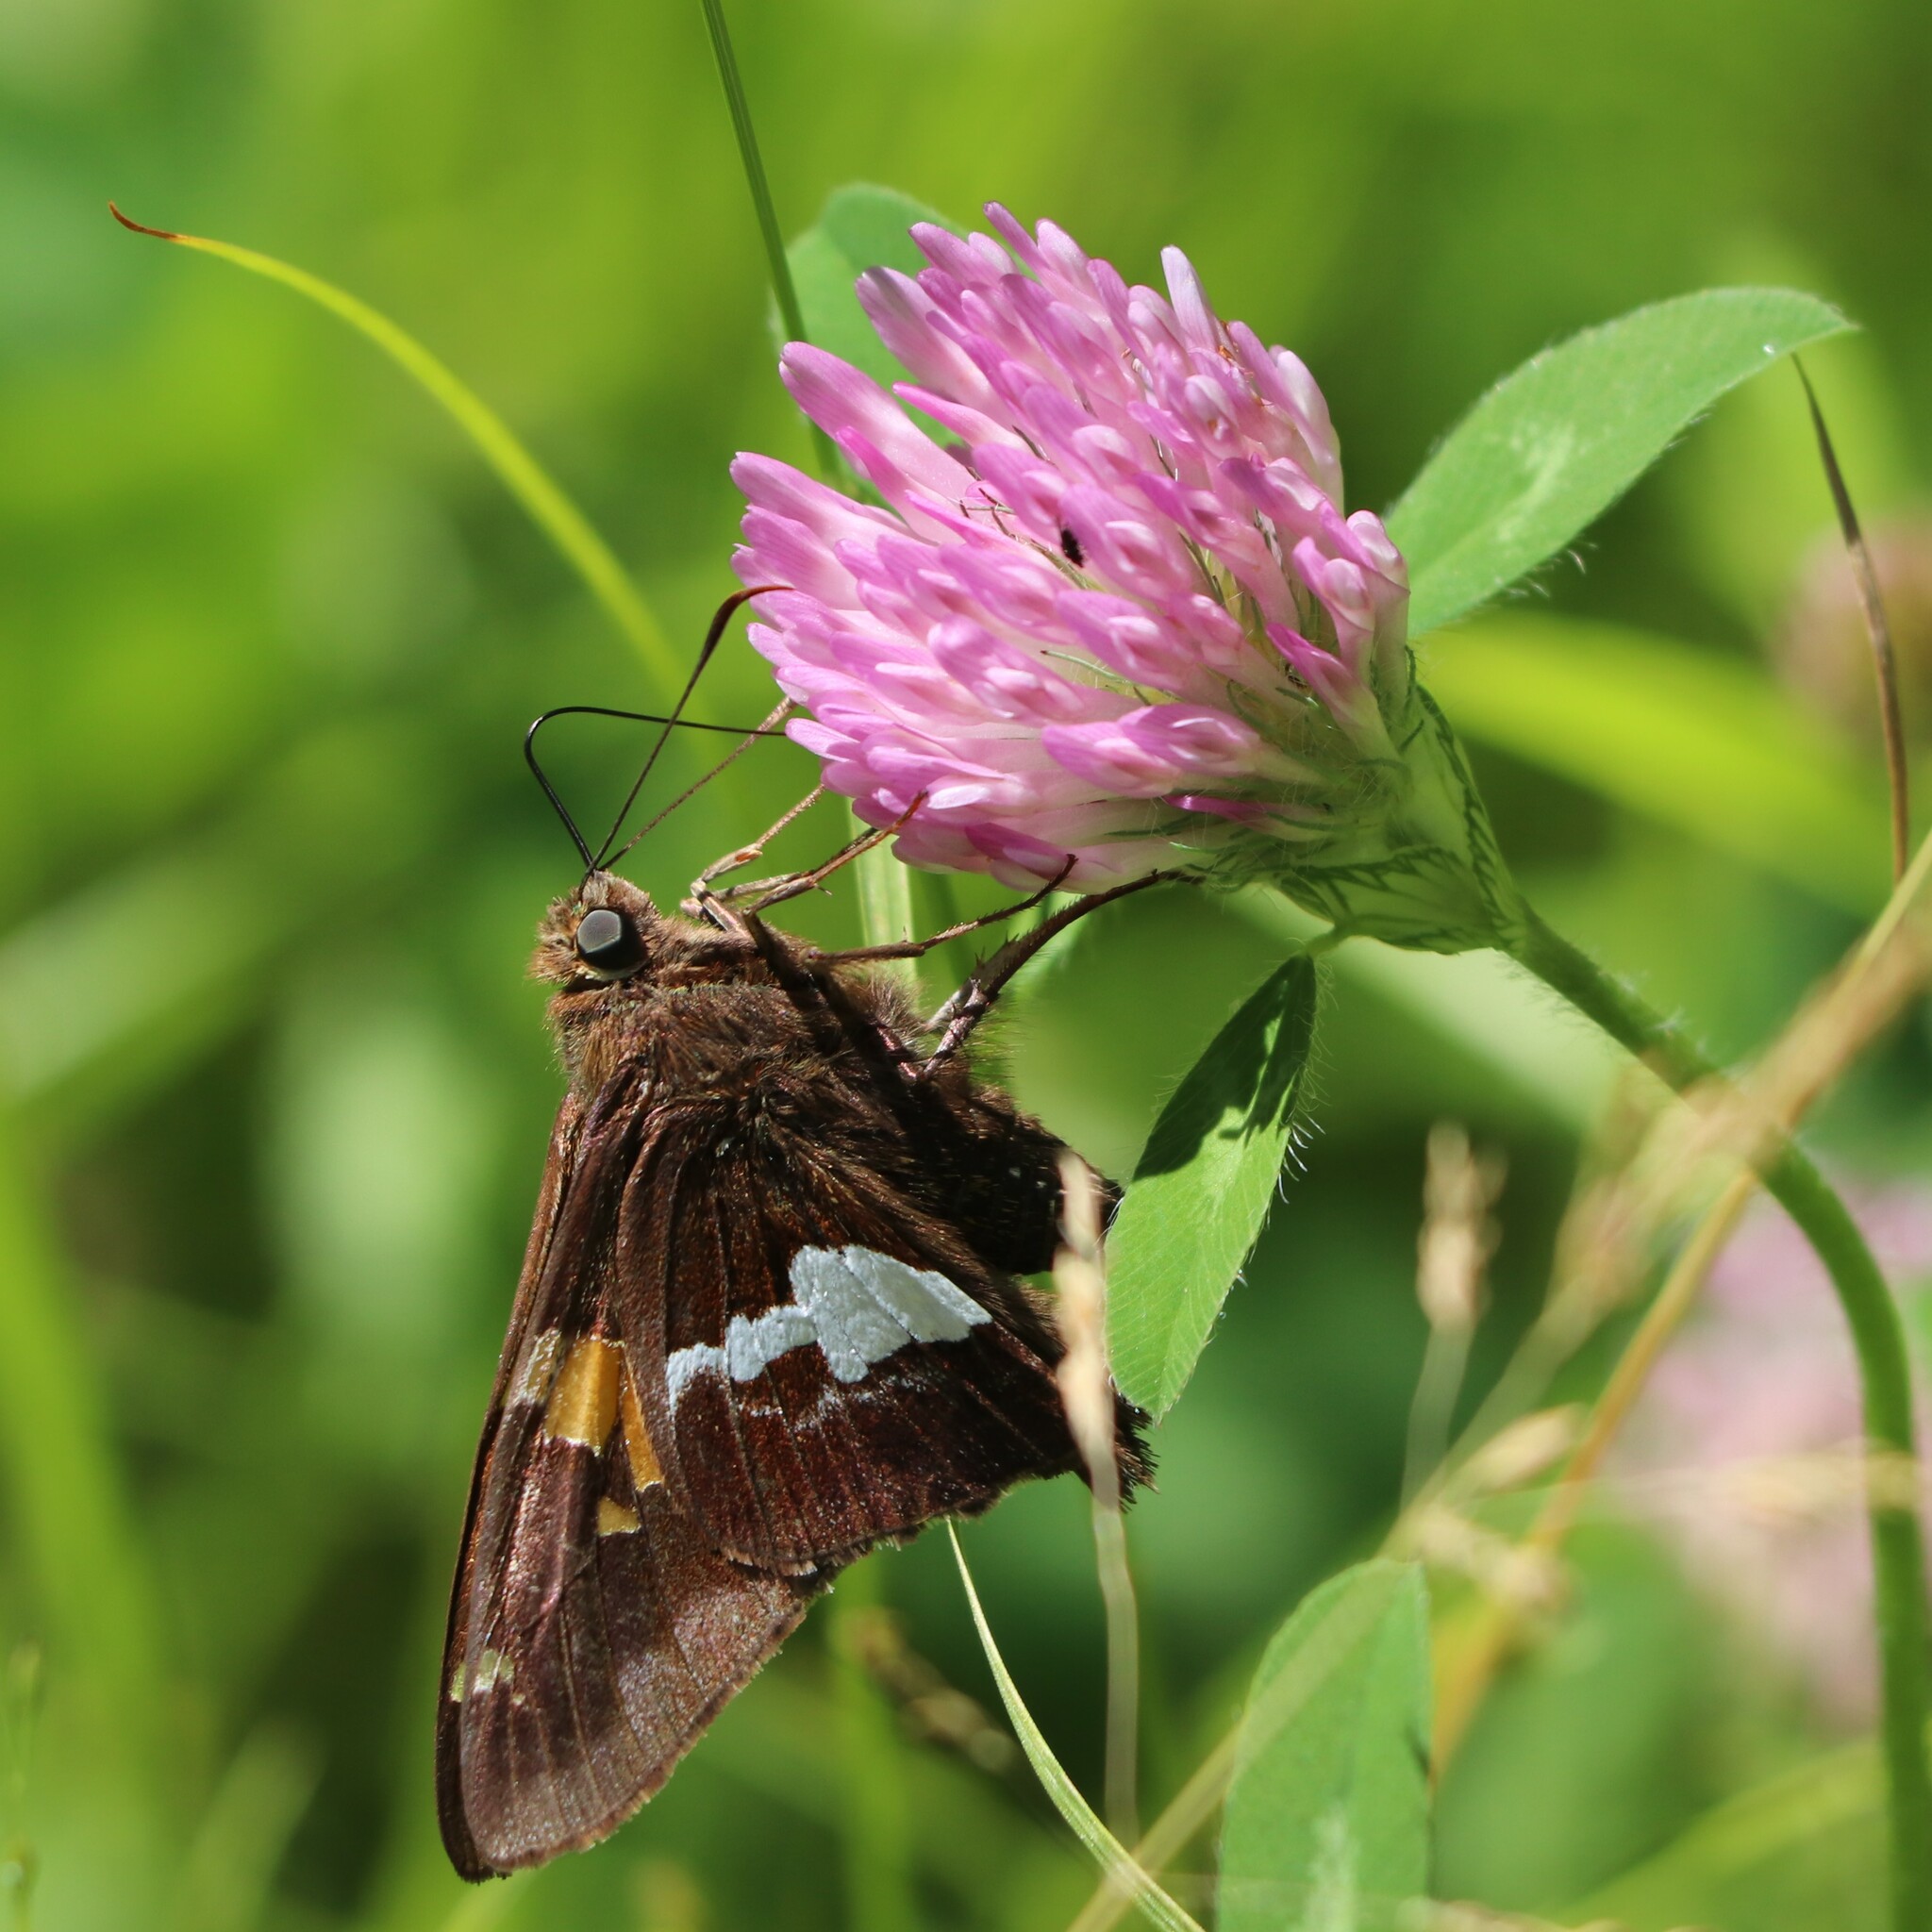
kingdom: Plantae
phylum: Tracheophyta
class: Magnoliopsida
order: Fabales
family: Fabaceae
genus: Trifolium
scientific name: Trifolium pratense
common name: Red clover
